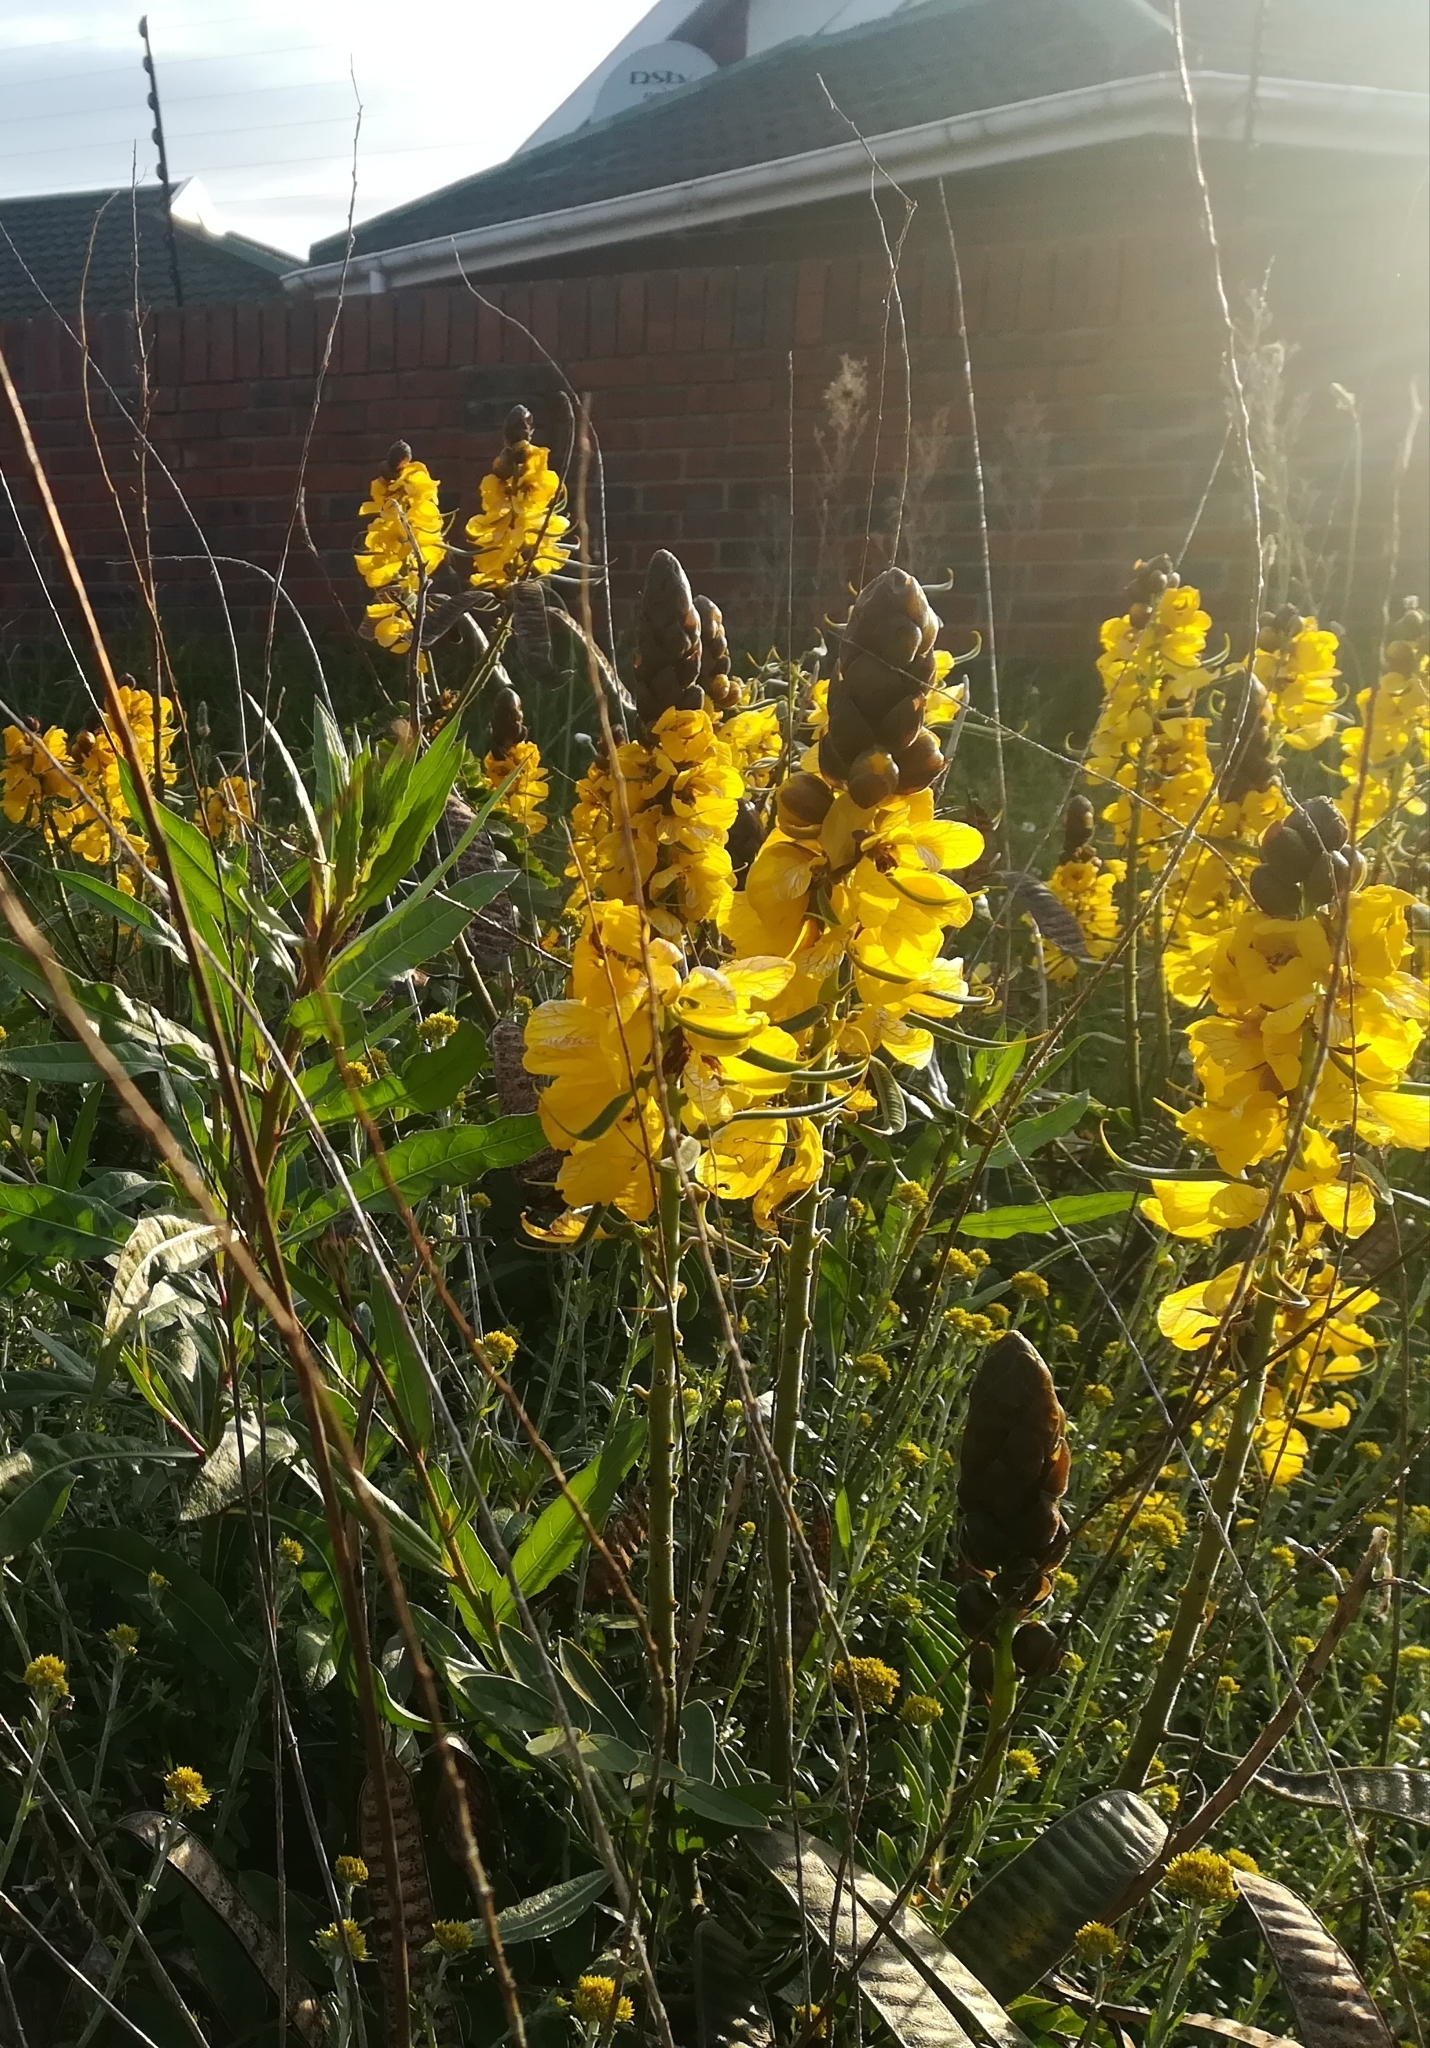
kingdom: Plantae
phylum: Tracheophyta
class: Magnoliopsida
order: Fabales
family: Fabaceae
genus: Senna
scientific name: Senna didymobotrya
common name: African senna
